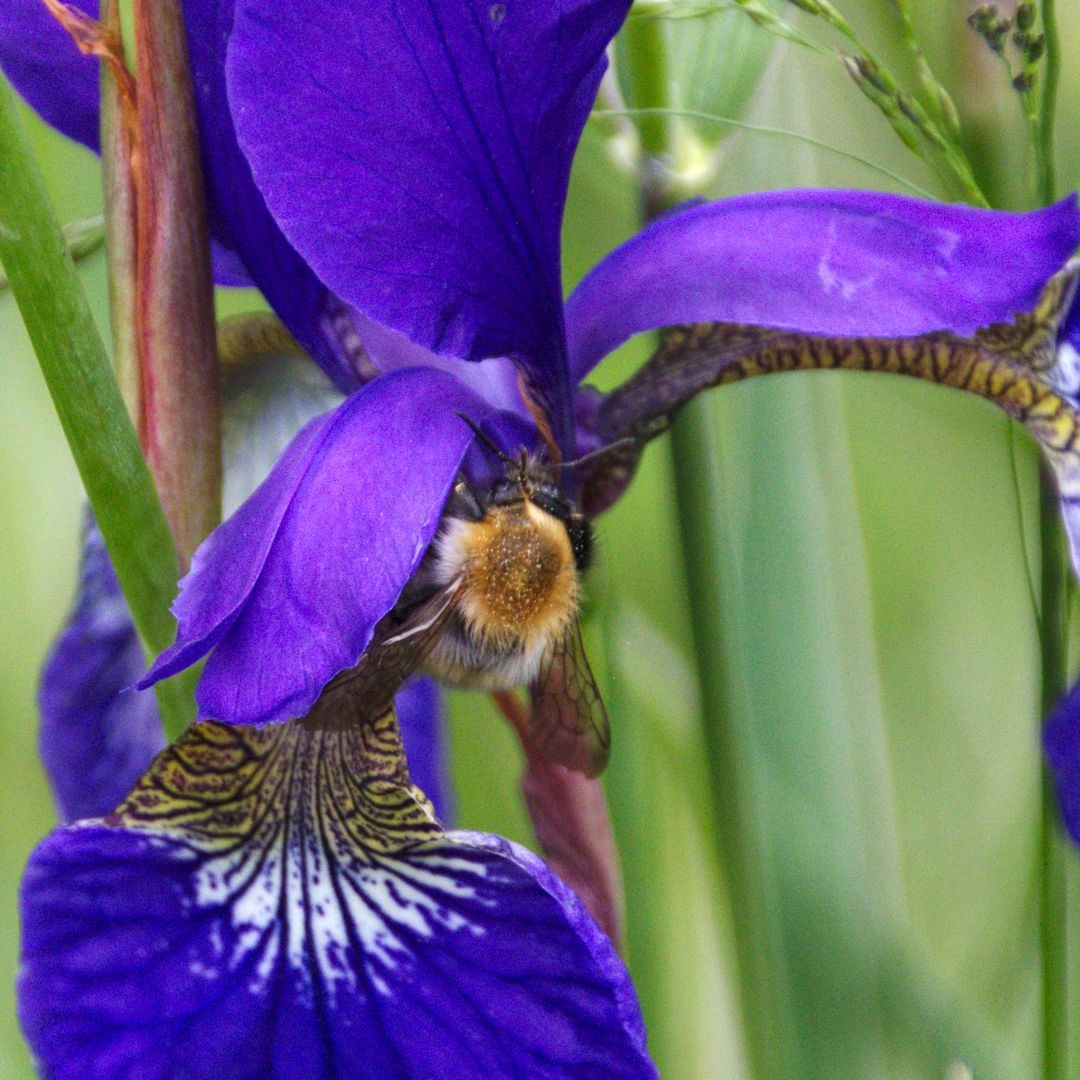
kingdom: Animalia
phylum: Arthropoda
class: Insecta
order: Hymenoptera
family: Apidae
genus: Bombus
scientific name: Bombus
